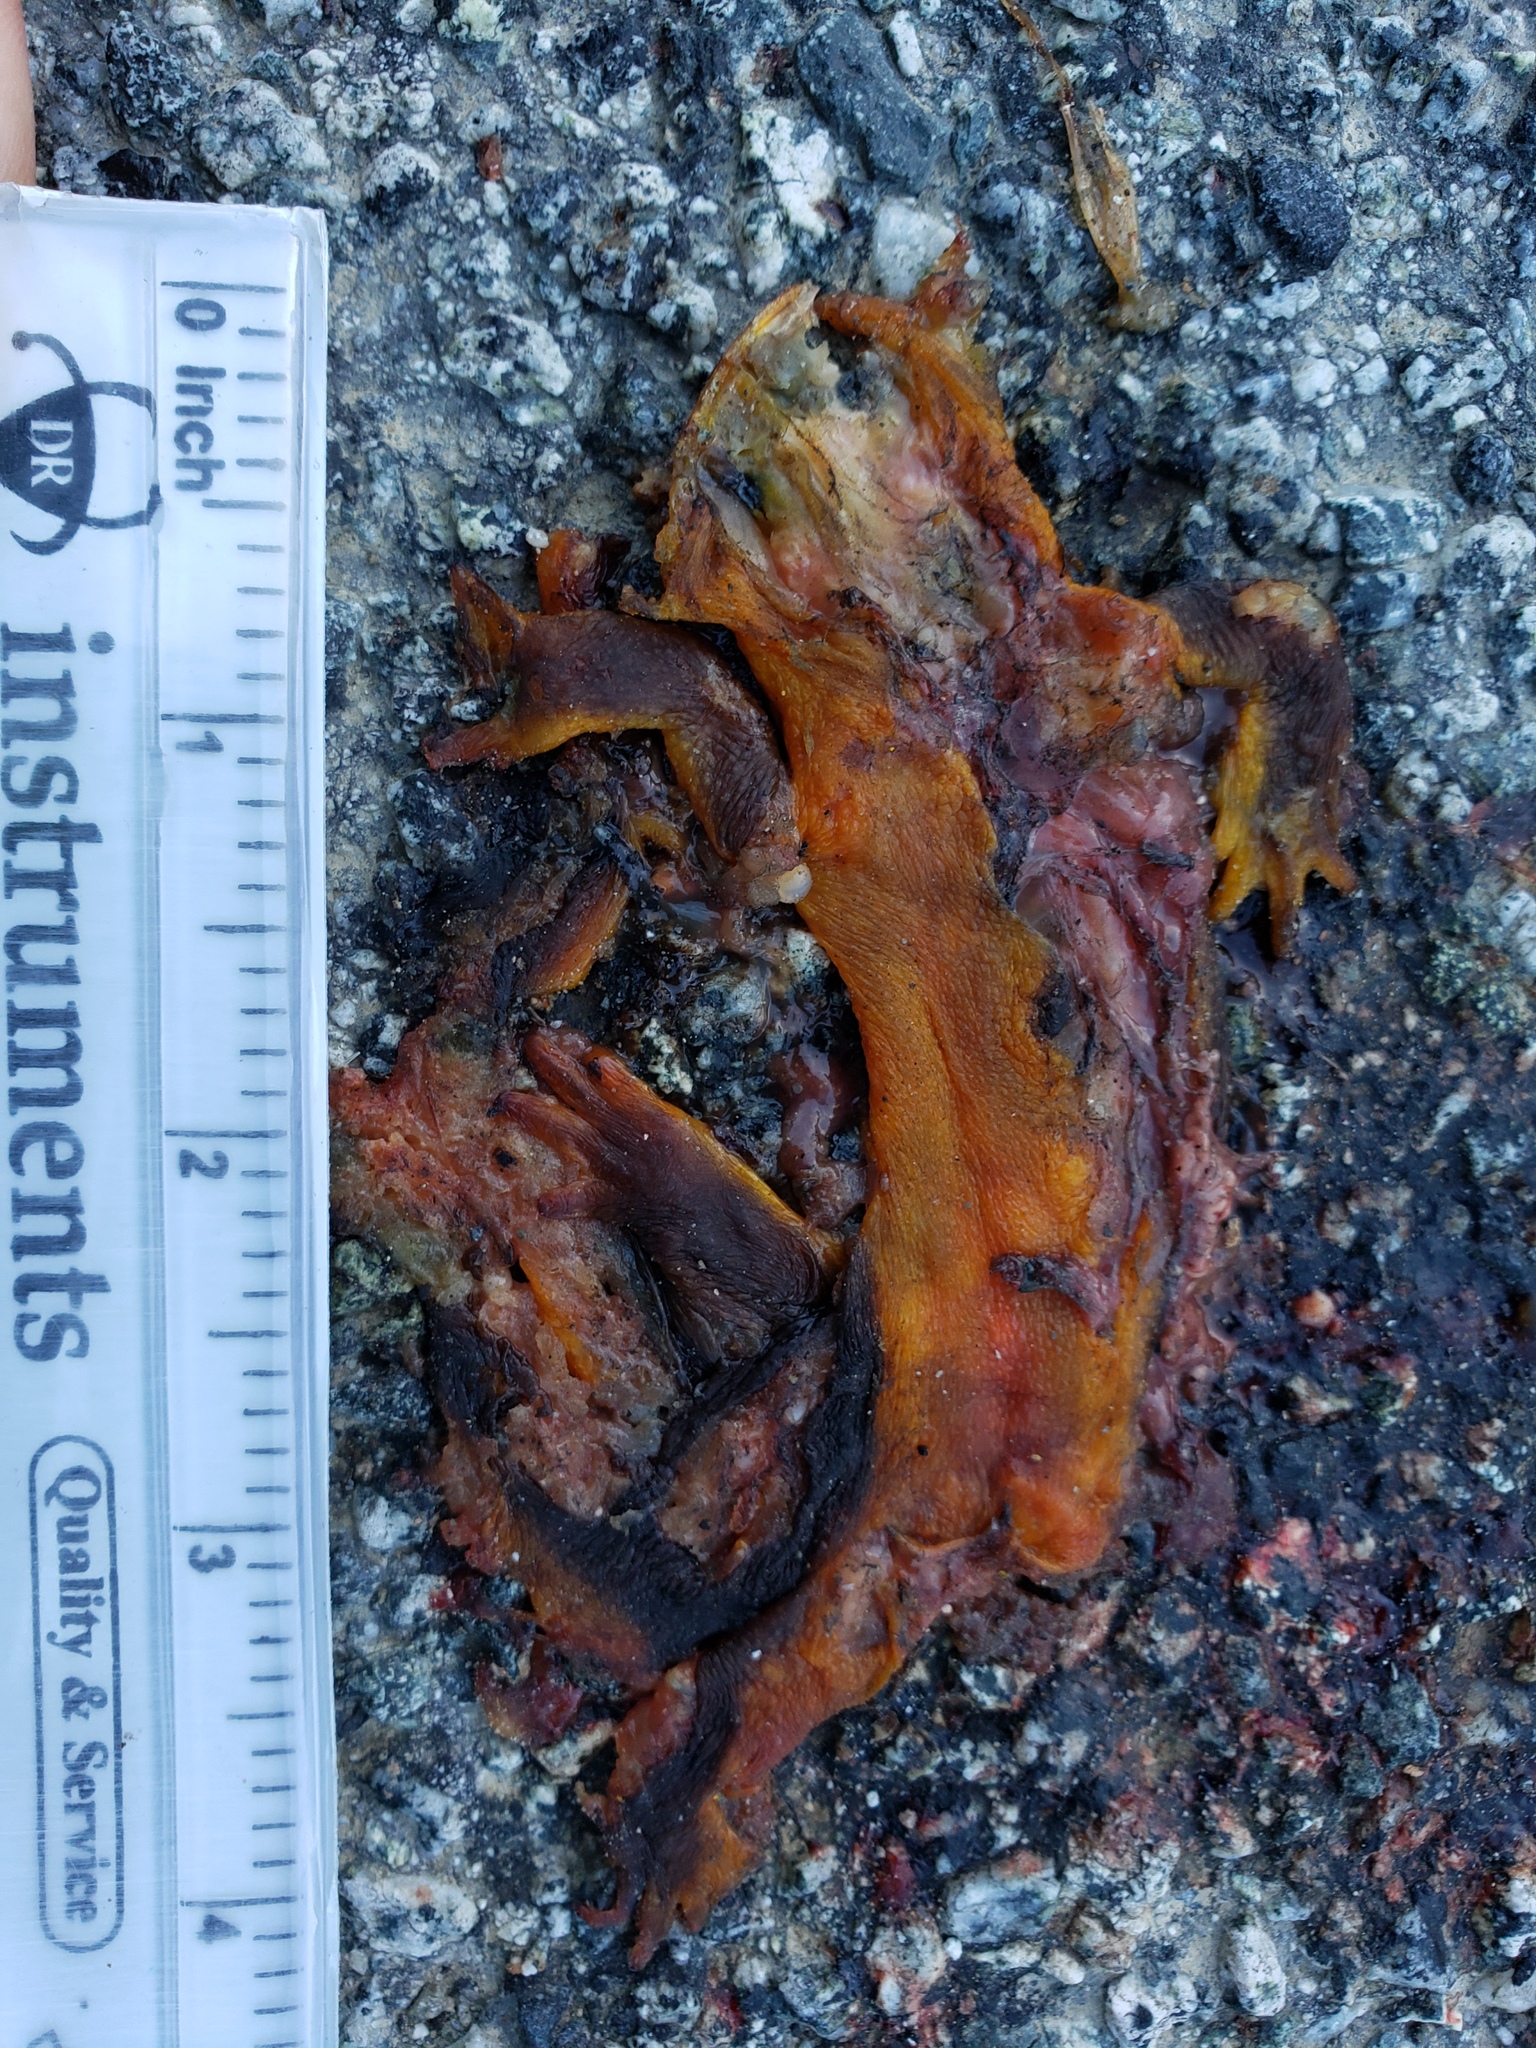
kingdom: Animalia
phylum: Chordata
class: Amphibia
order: Caudata
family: Salamandridae
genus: Taricha
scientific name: Taricha
